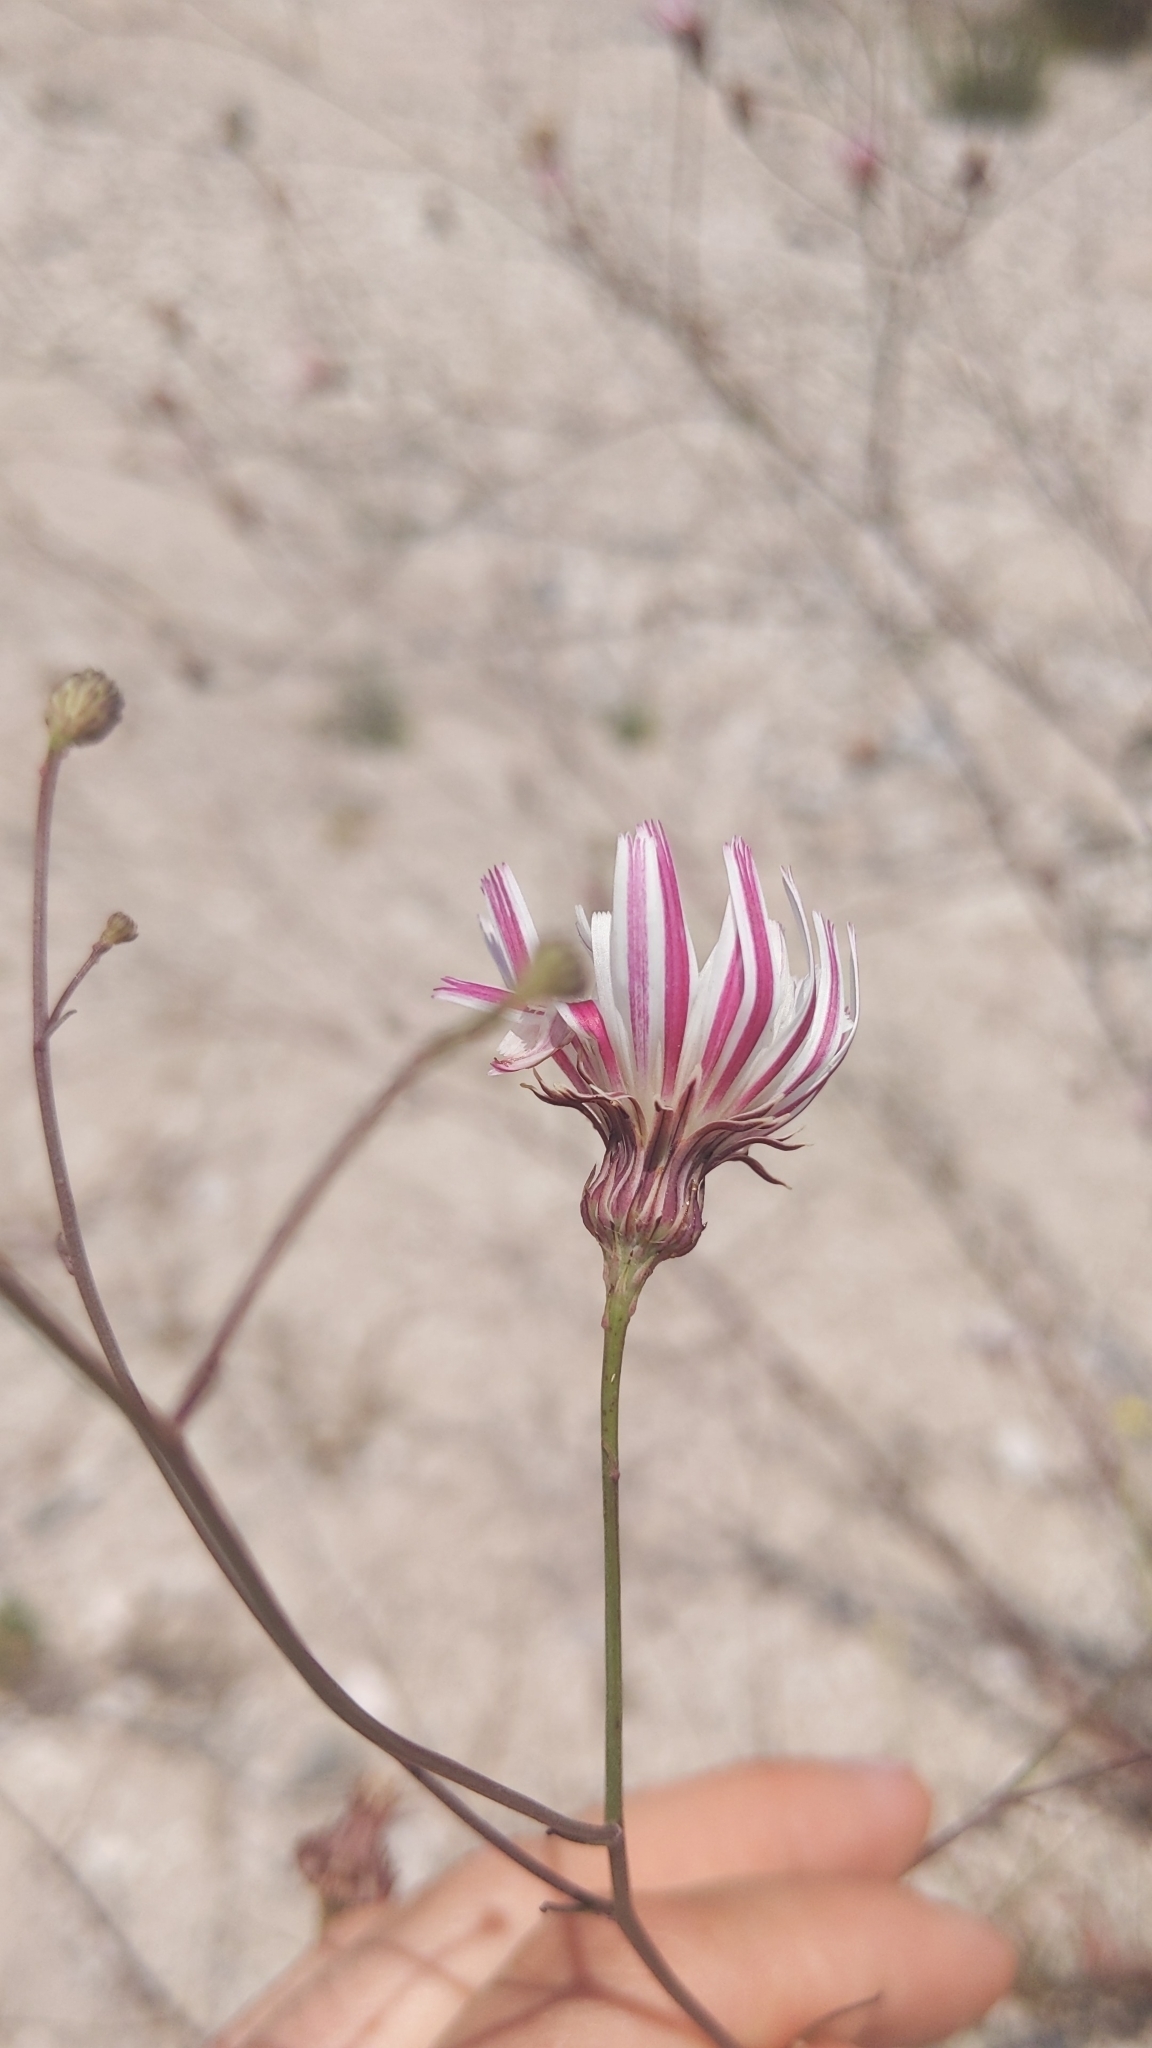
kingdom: Plantae
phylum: Tracheophyta
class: Magnoliopsida
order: Asterales
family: Asteraceae
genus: Malacothrix
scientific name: Malacothrix saxatilis
